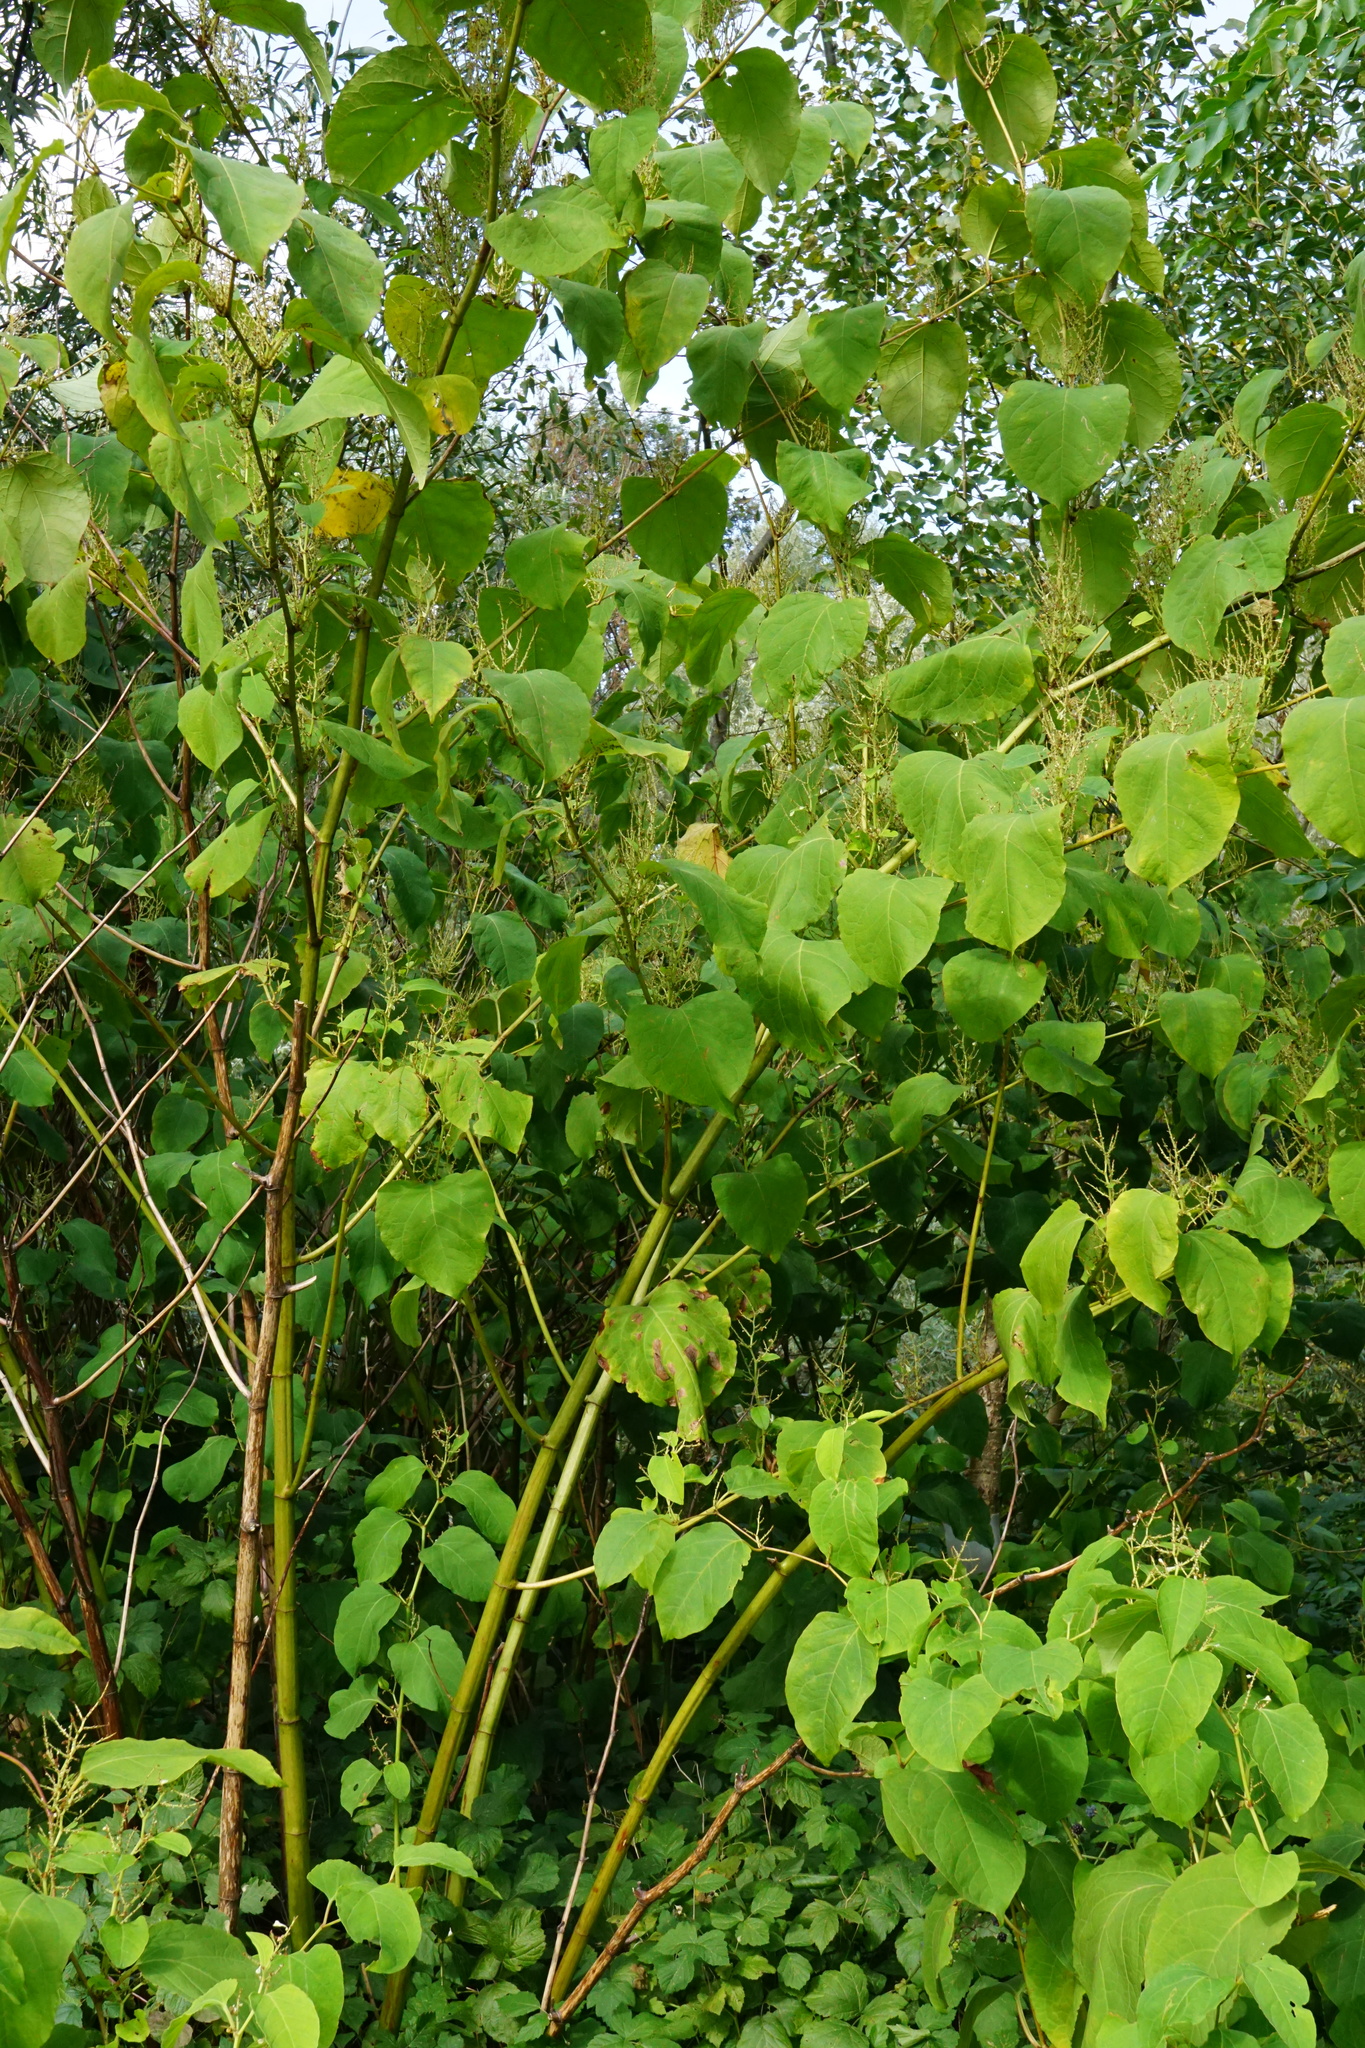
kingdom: Plantae
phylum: Tracheophyta
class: Magnoliopsida
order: Caryophyllales
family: Polygonaceae
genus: Reynoutria
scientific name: Reynoutria bohemica
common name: Bohemian knotweed
